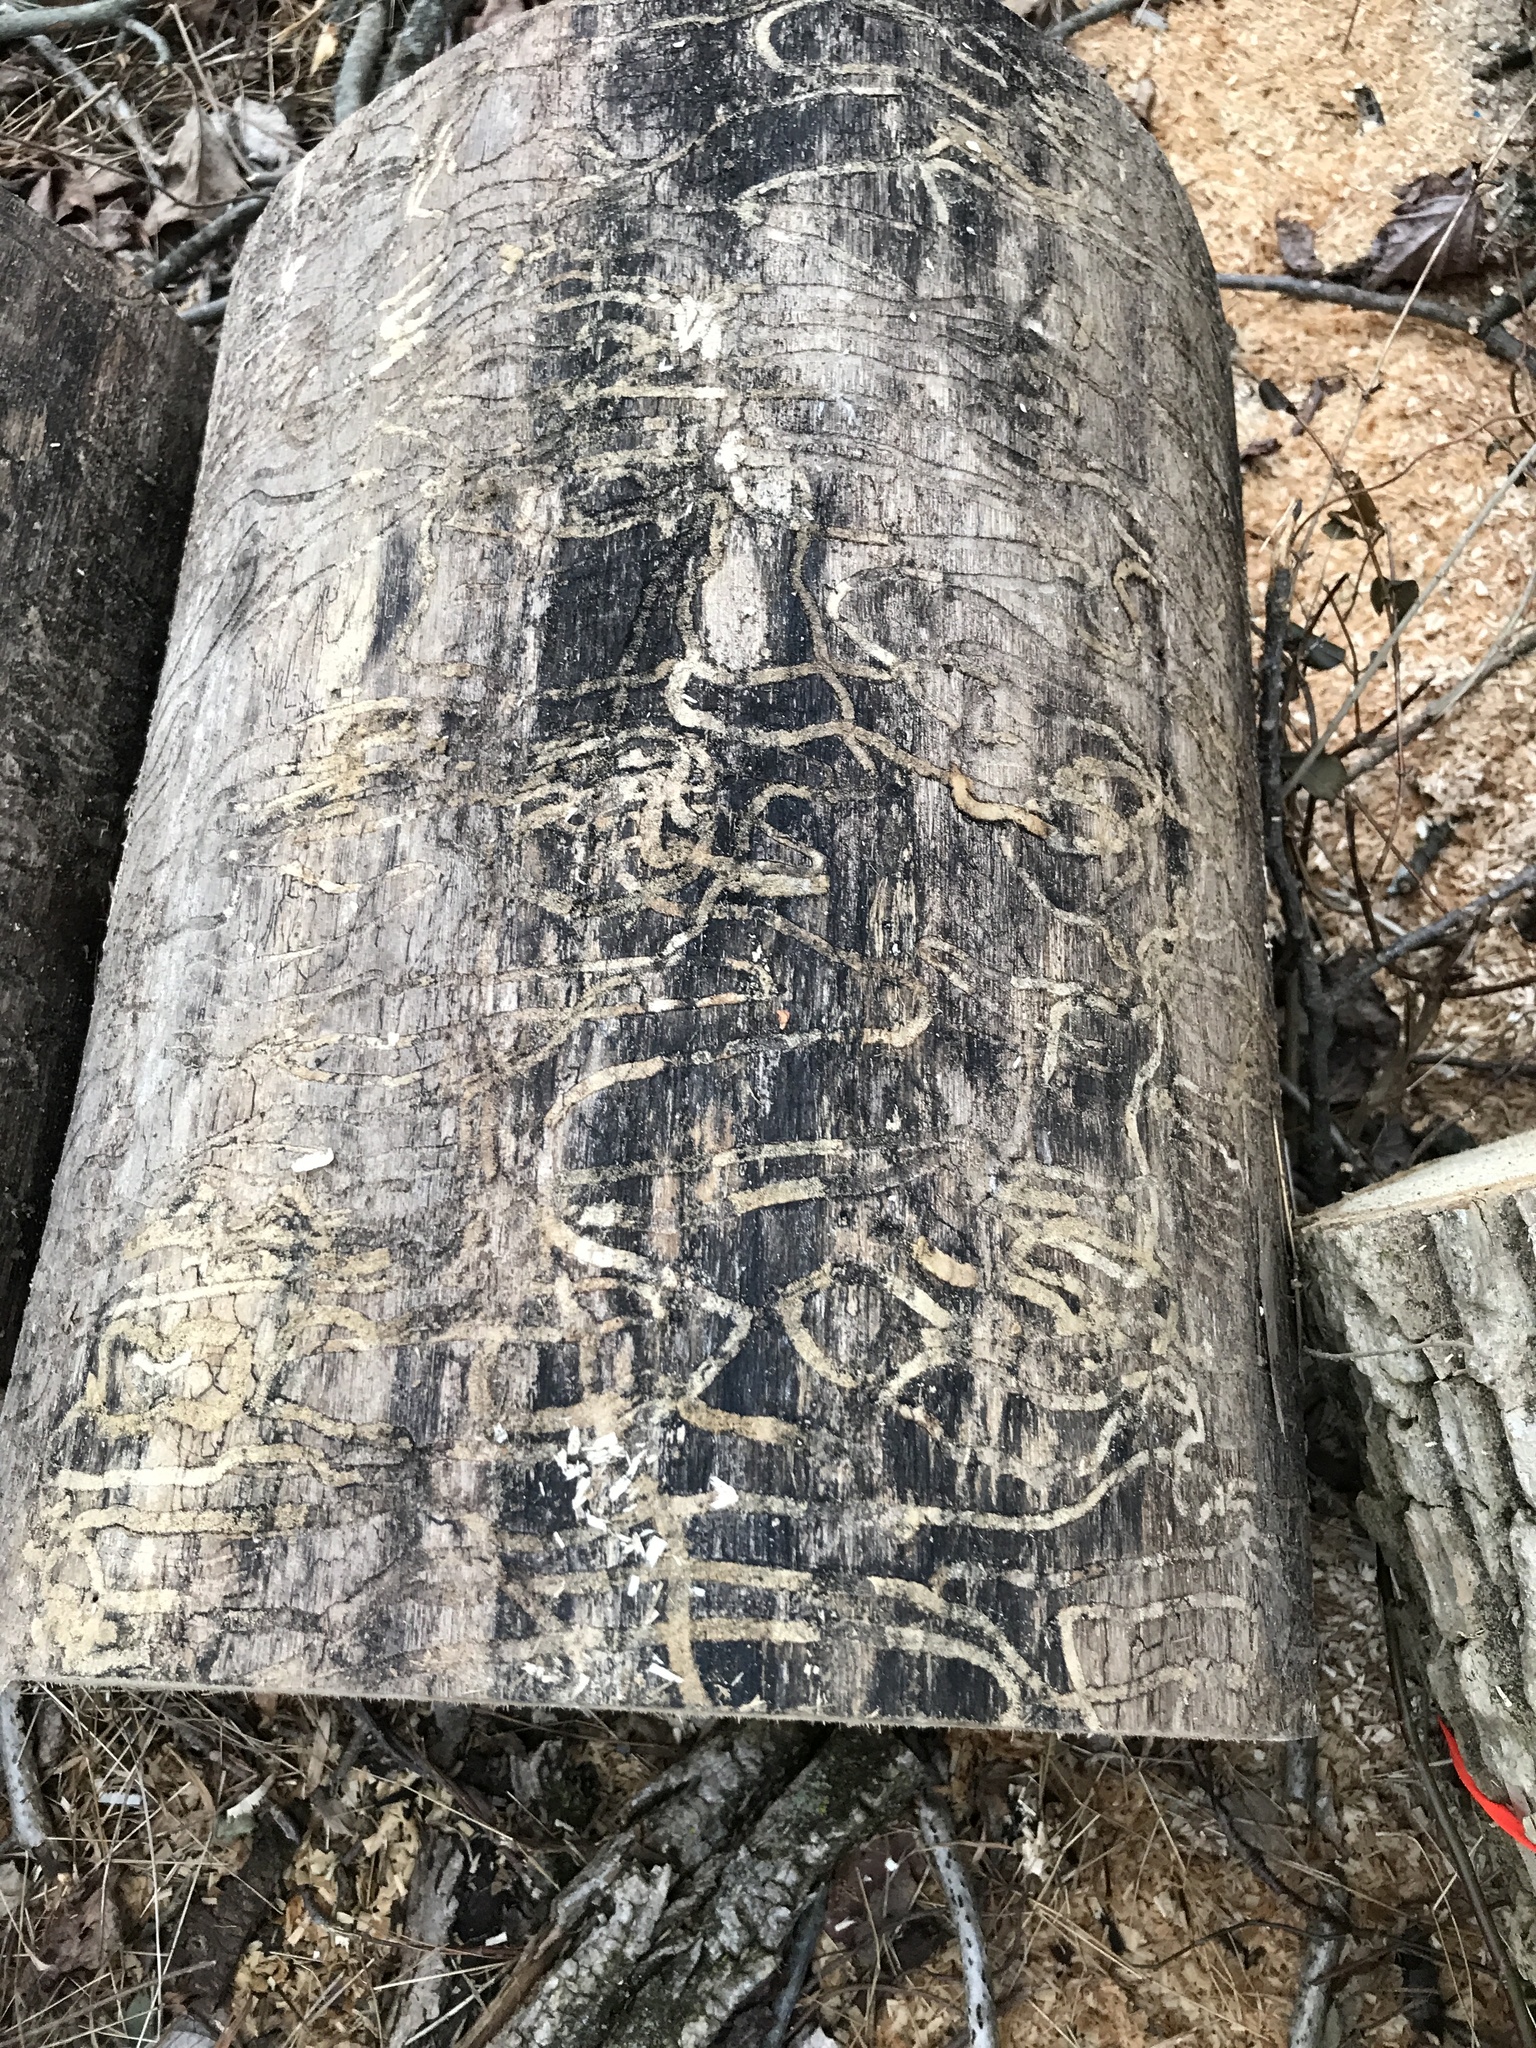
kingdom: Animalia
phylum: Arthropoda
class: Insecta
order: Coleoptera
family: Buprestidae
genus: Agrilus
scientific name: Agrilus planipennis
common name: Emerald ash borer
